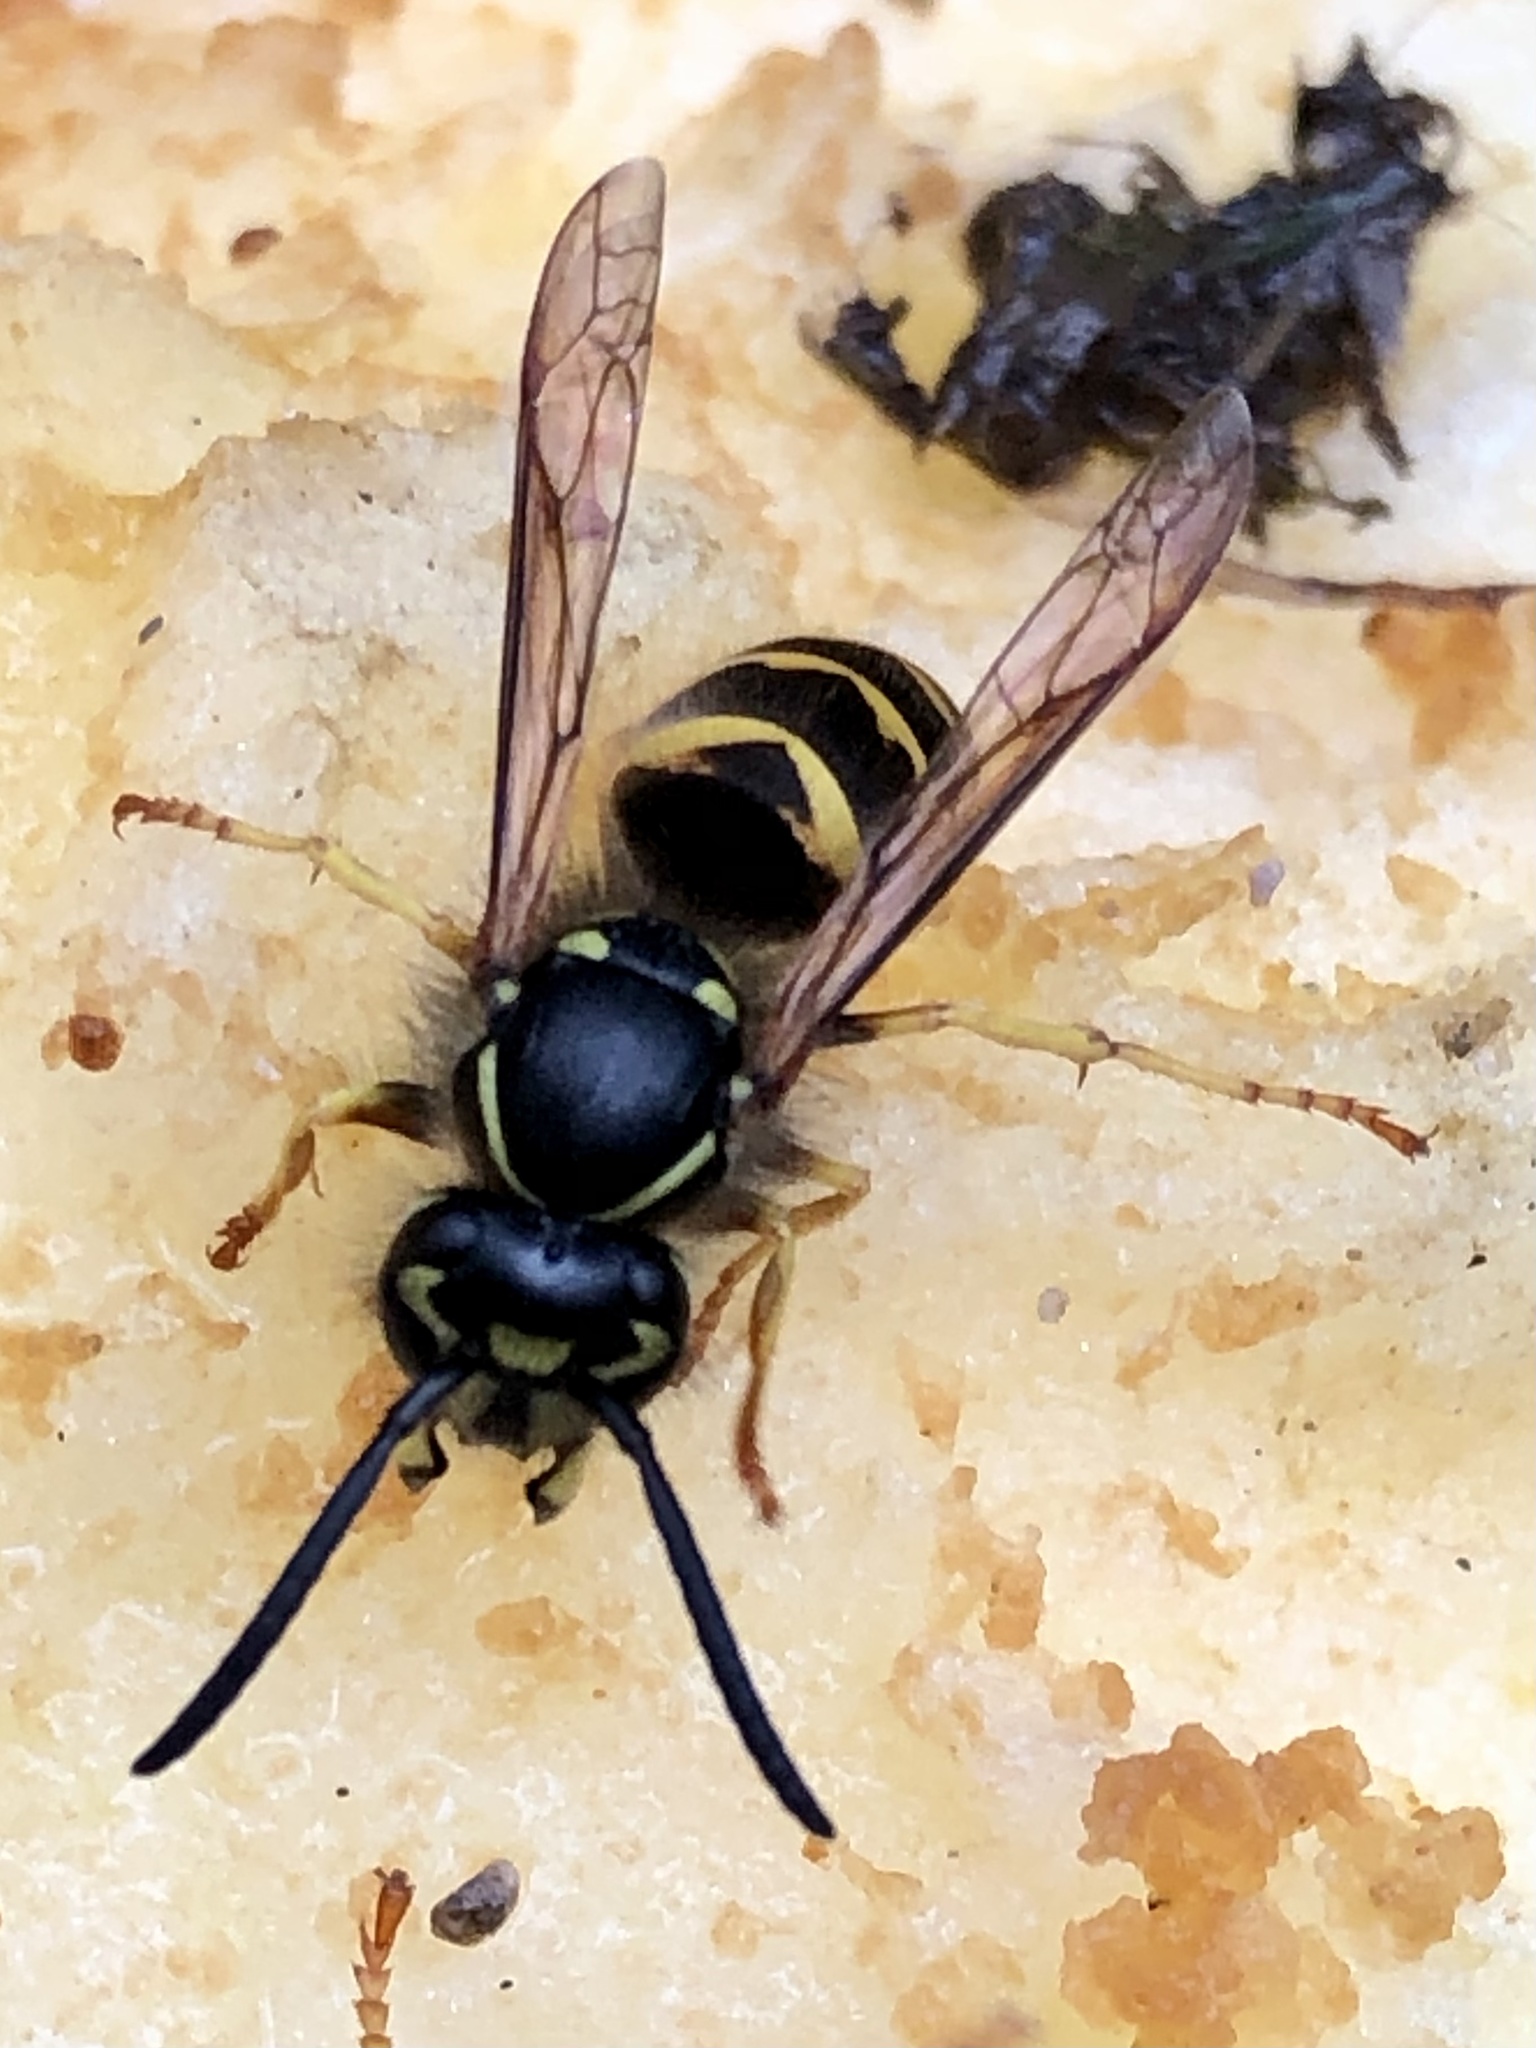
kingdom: Animalia
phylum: Arthropoda
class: Insecta
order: Hymenoptera
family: Vespidae
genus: Vespula
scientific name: Vespula alascensis
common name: Alaska yellowjacket
